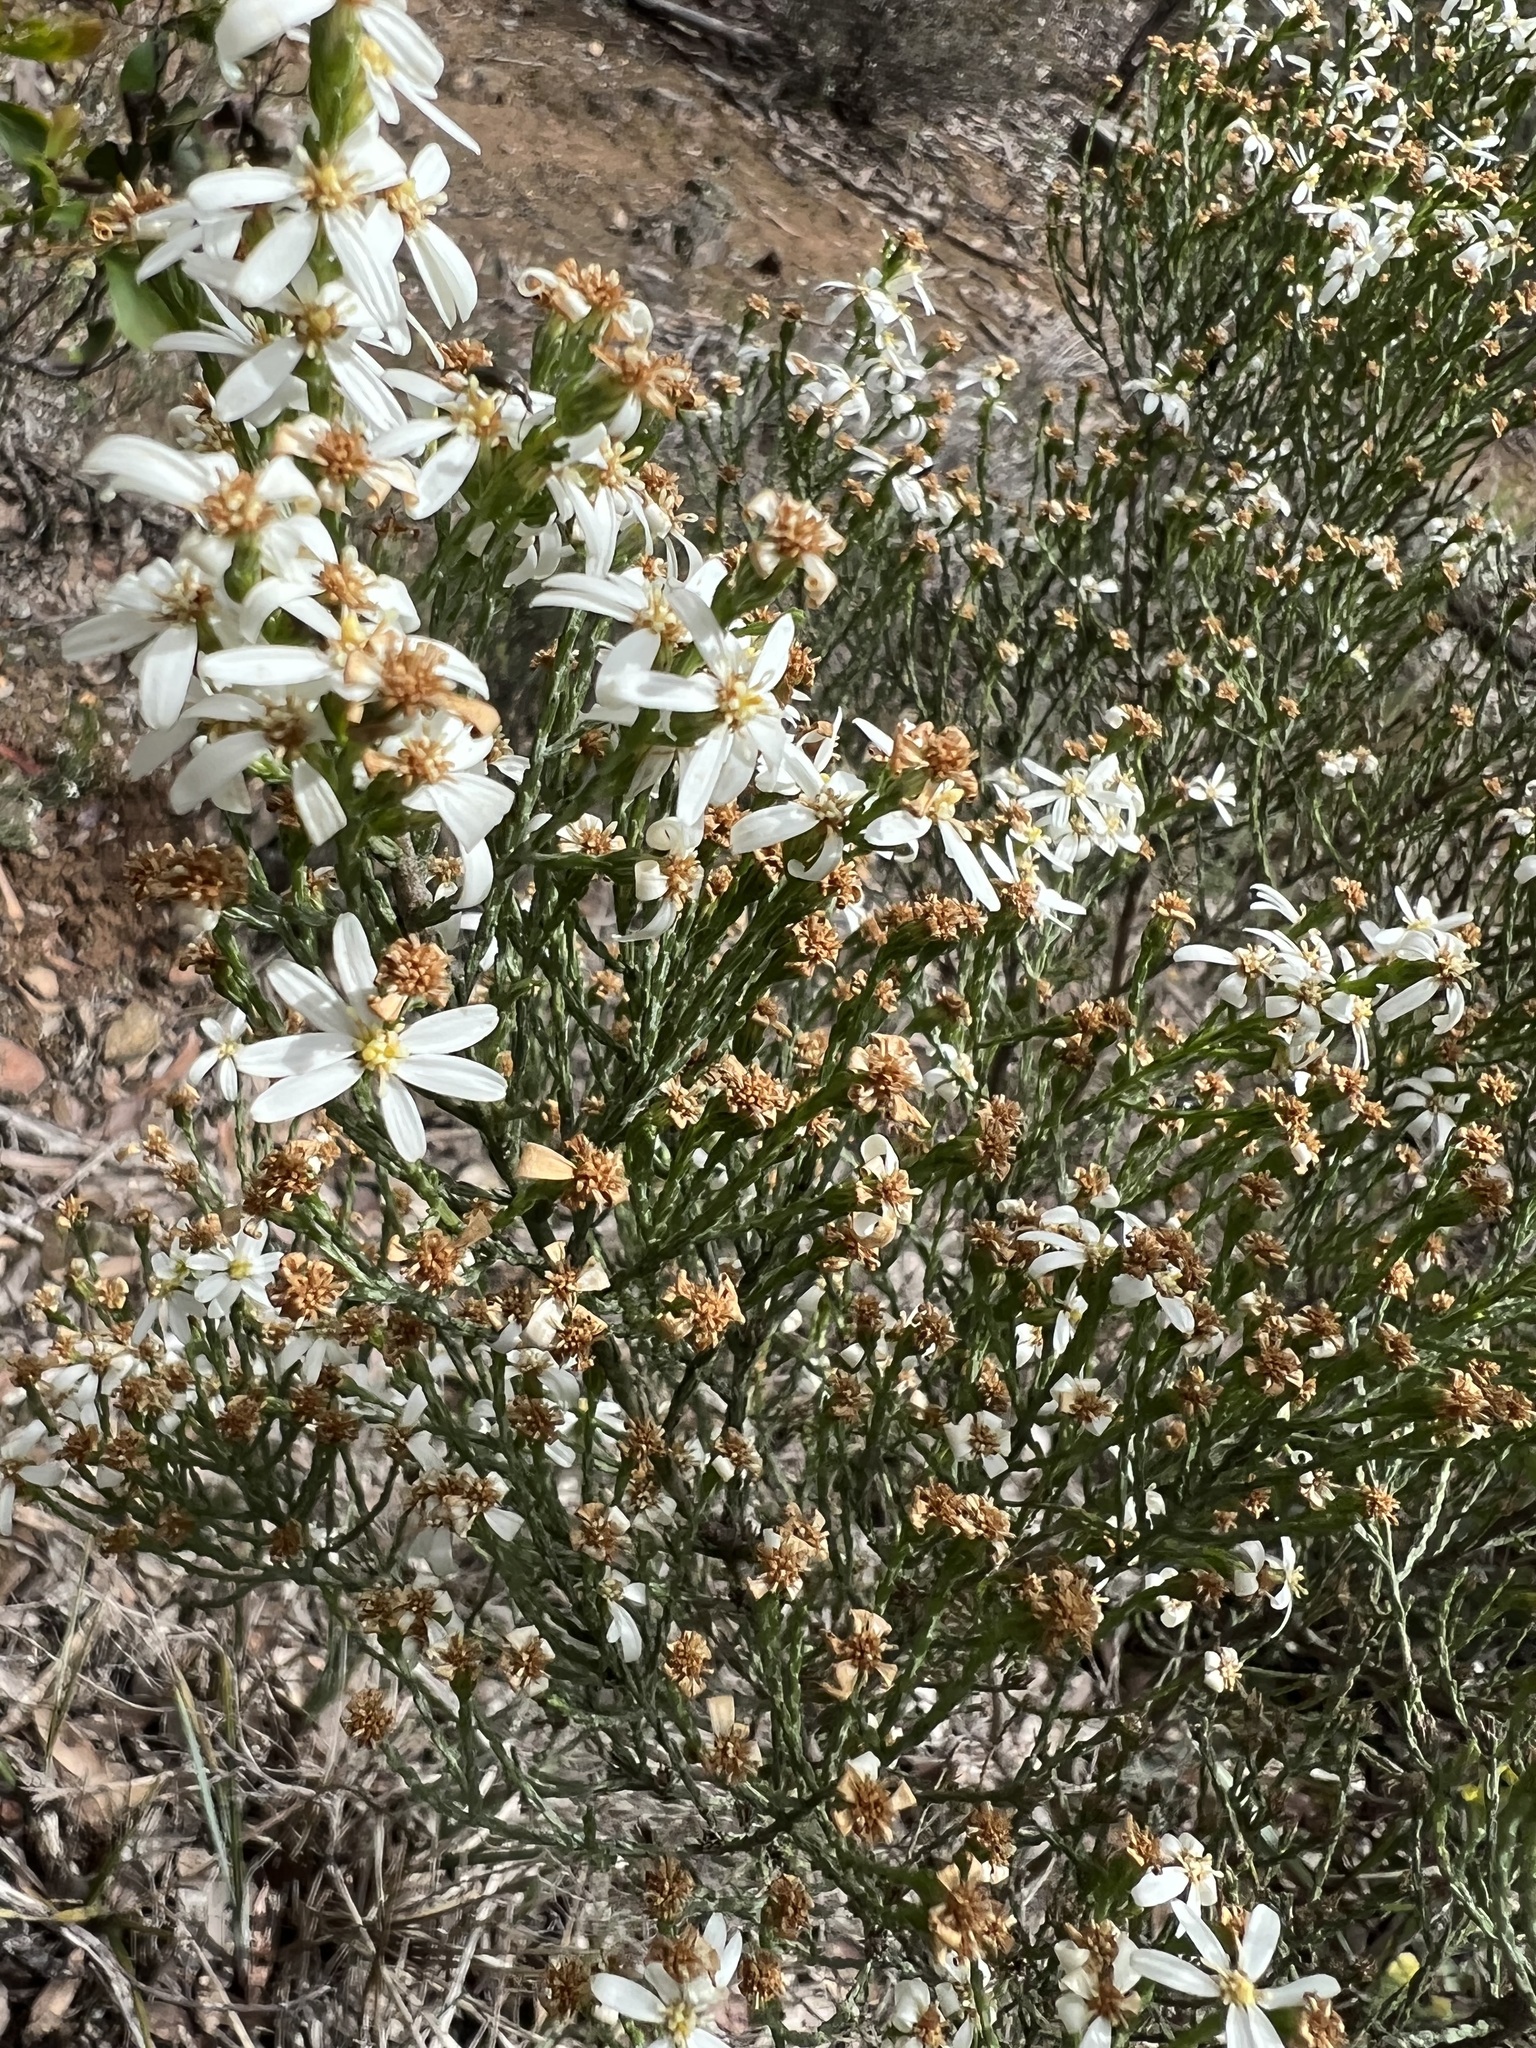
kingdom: Plantae
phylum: Tracheophyta
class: Magnoliopsida
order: Asterales
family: Asteraceae
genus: Olearia
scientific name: Olearia teretifolia
